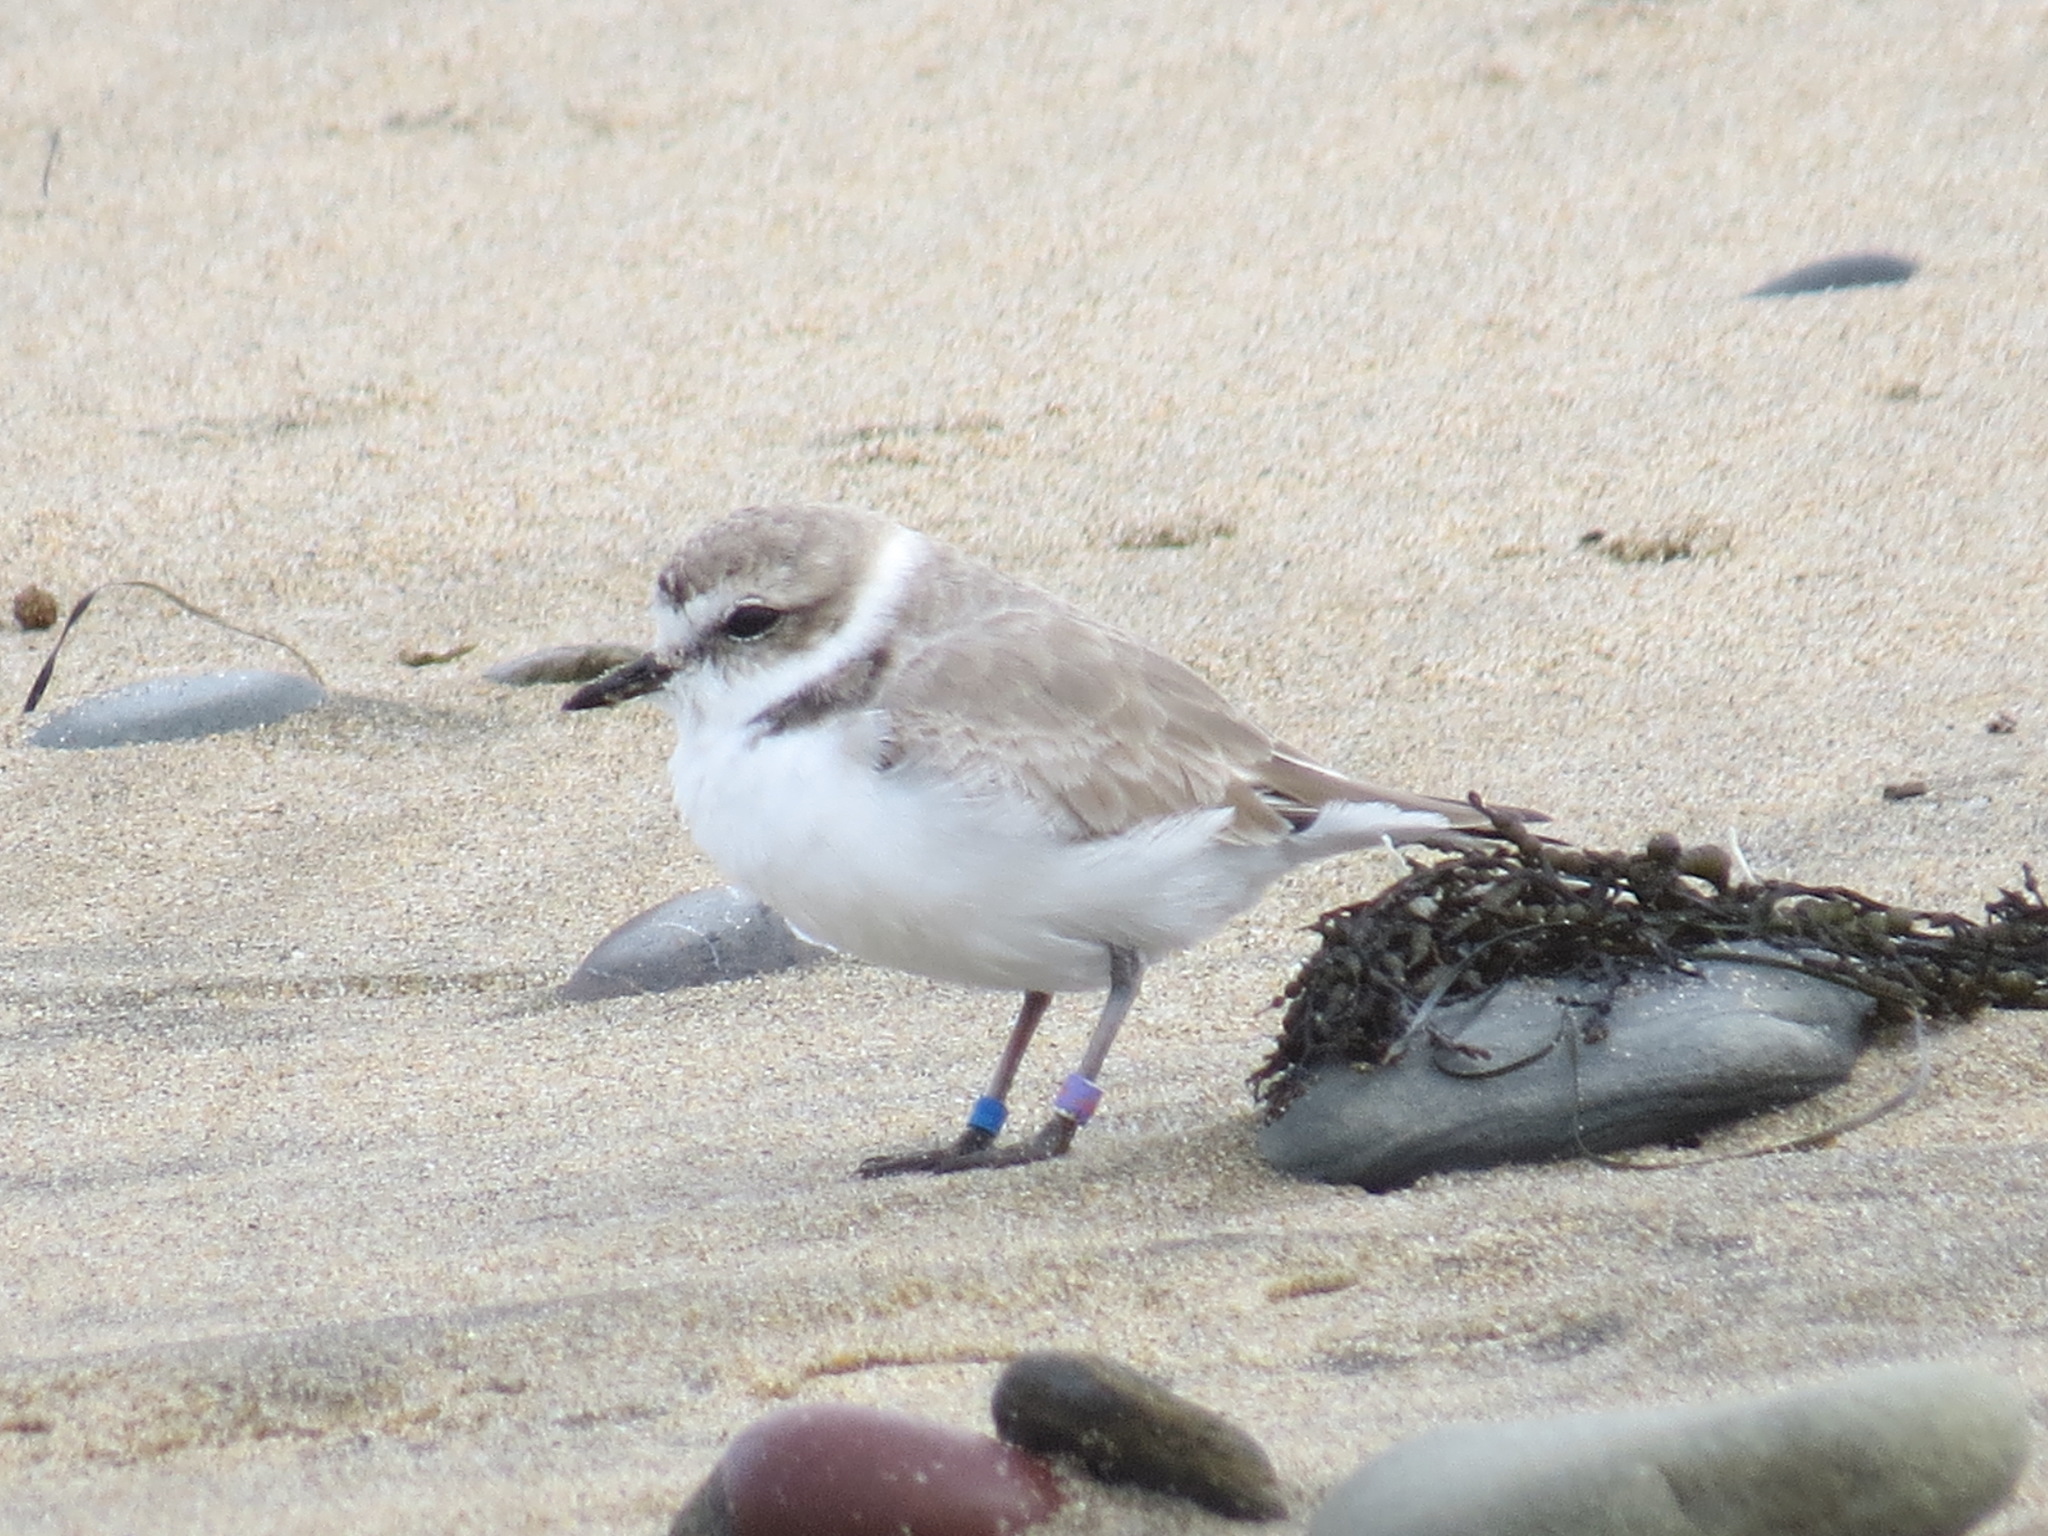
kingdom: Animalia
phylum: Chordata
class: Aves
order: Charadriiformes
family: Charadriidae
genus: Anarhynchus
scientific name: Anarhynchus
